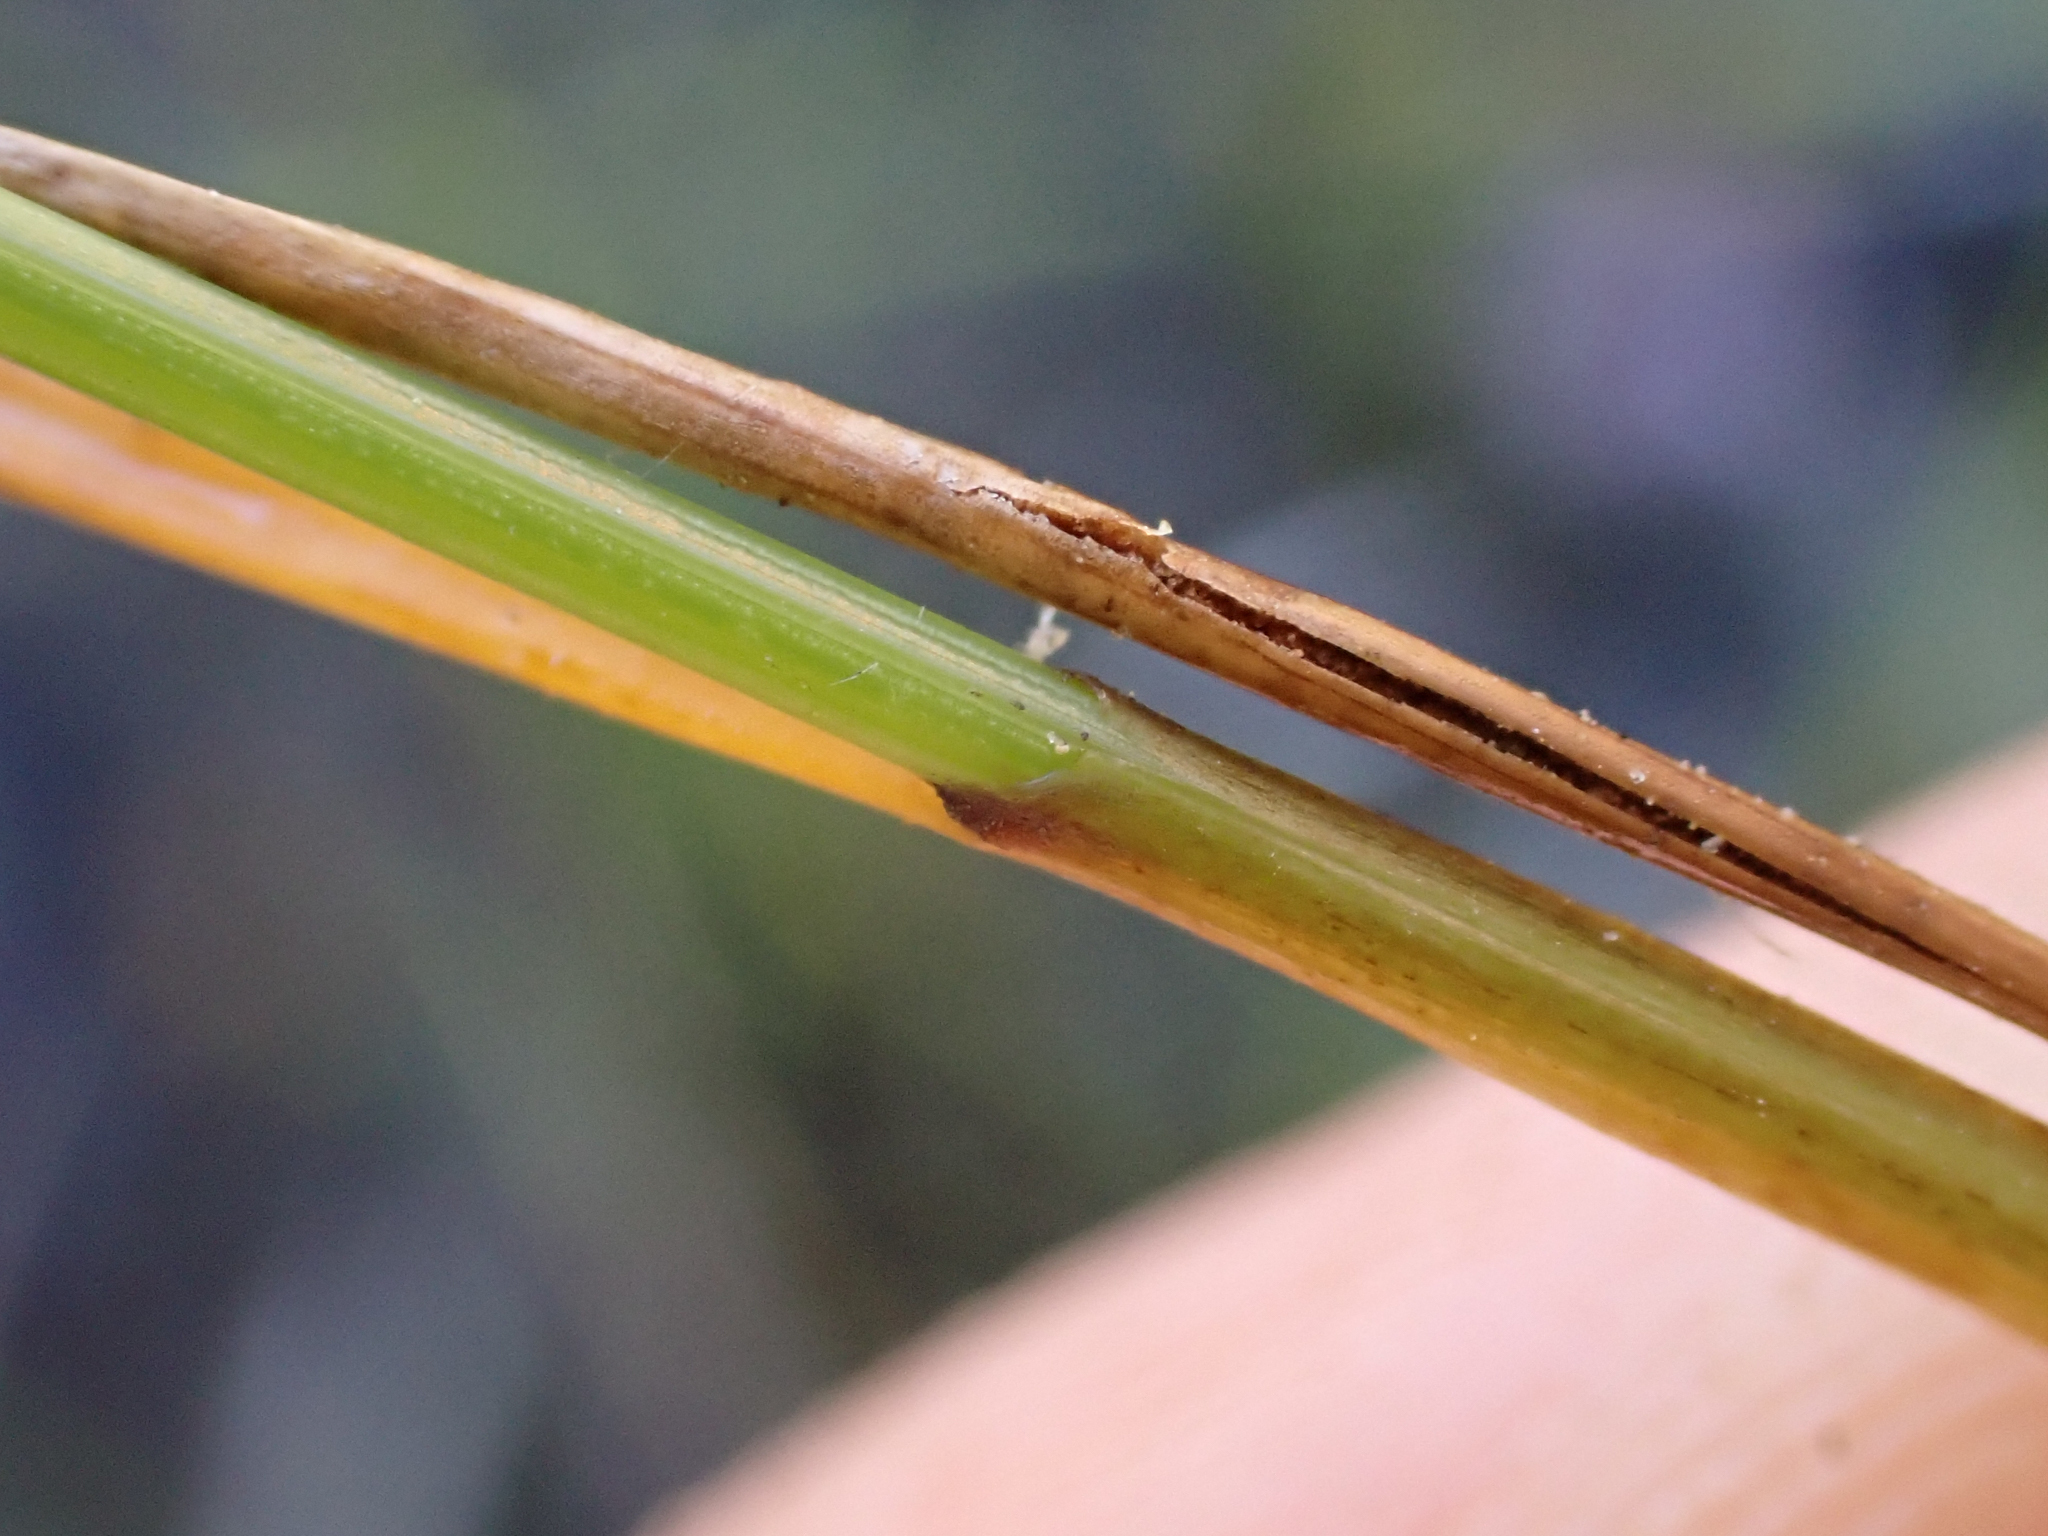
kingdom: Plantae
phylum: Tracheophyta
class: Liliopsida
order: Poales
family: Cyperaceae
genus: Carex
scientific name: Carex microglochin
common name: Bristle sedge
